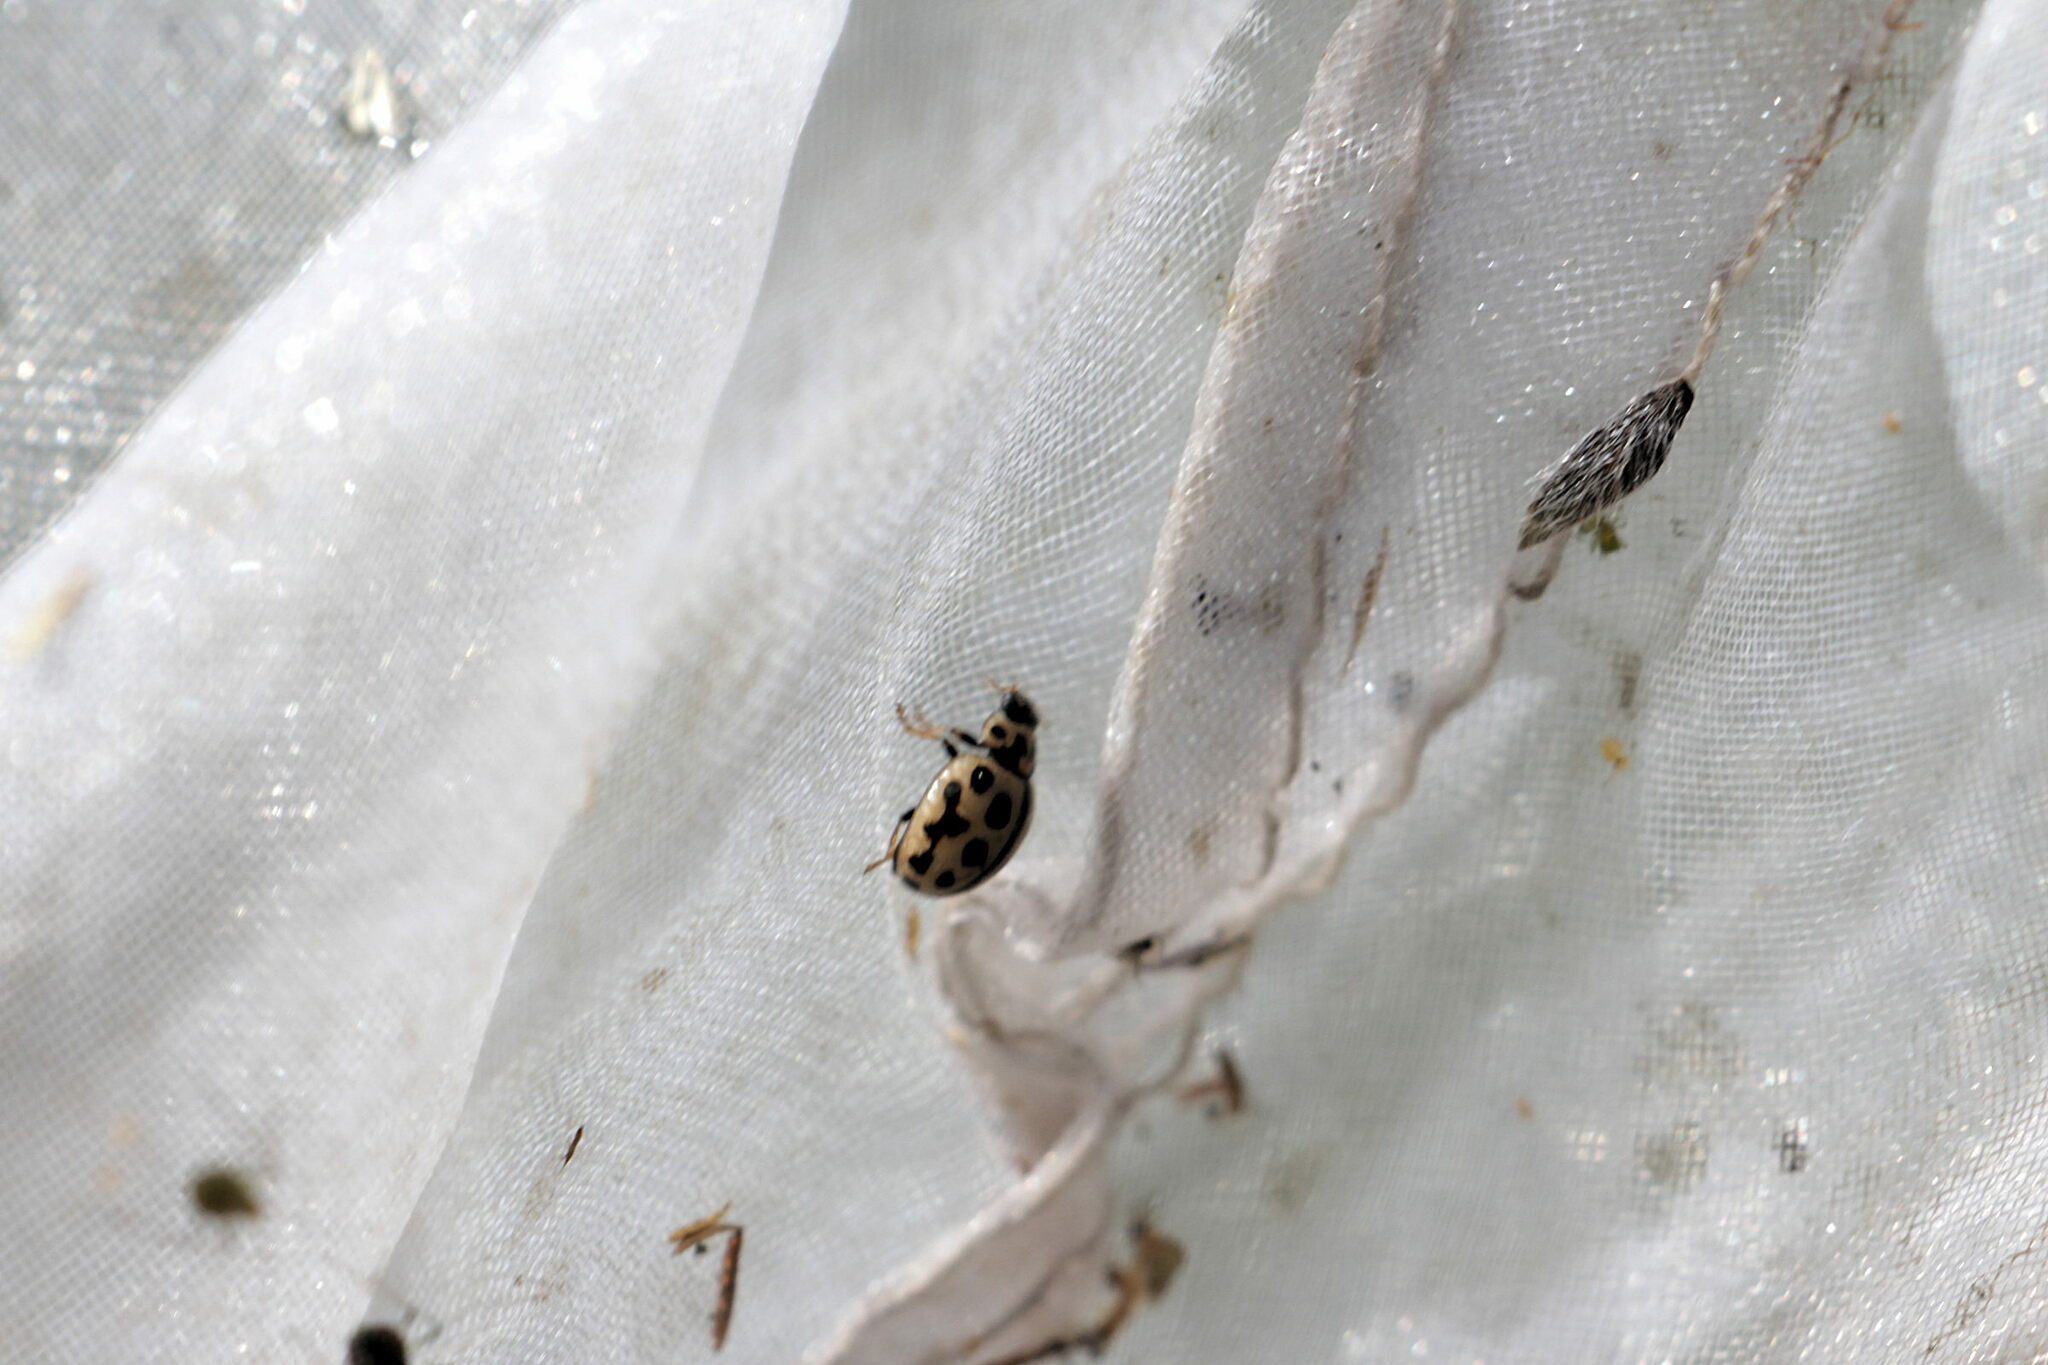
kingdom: Animalia
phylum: Arthropoda
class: Insecta
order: Coleoptera
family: Coccinellidae
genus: Tytthaspis
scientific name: Tytthaspis sedecimpunctata
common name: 16-spot ladybird
